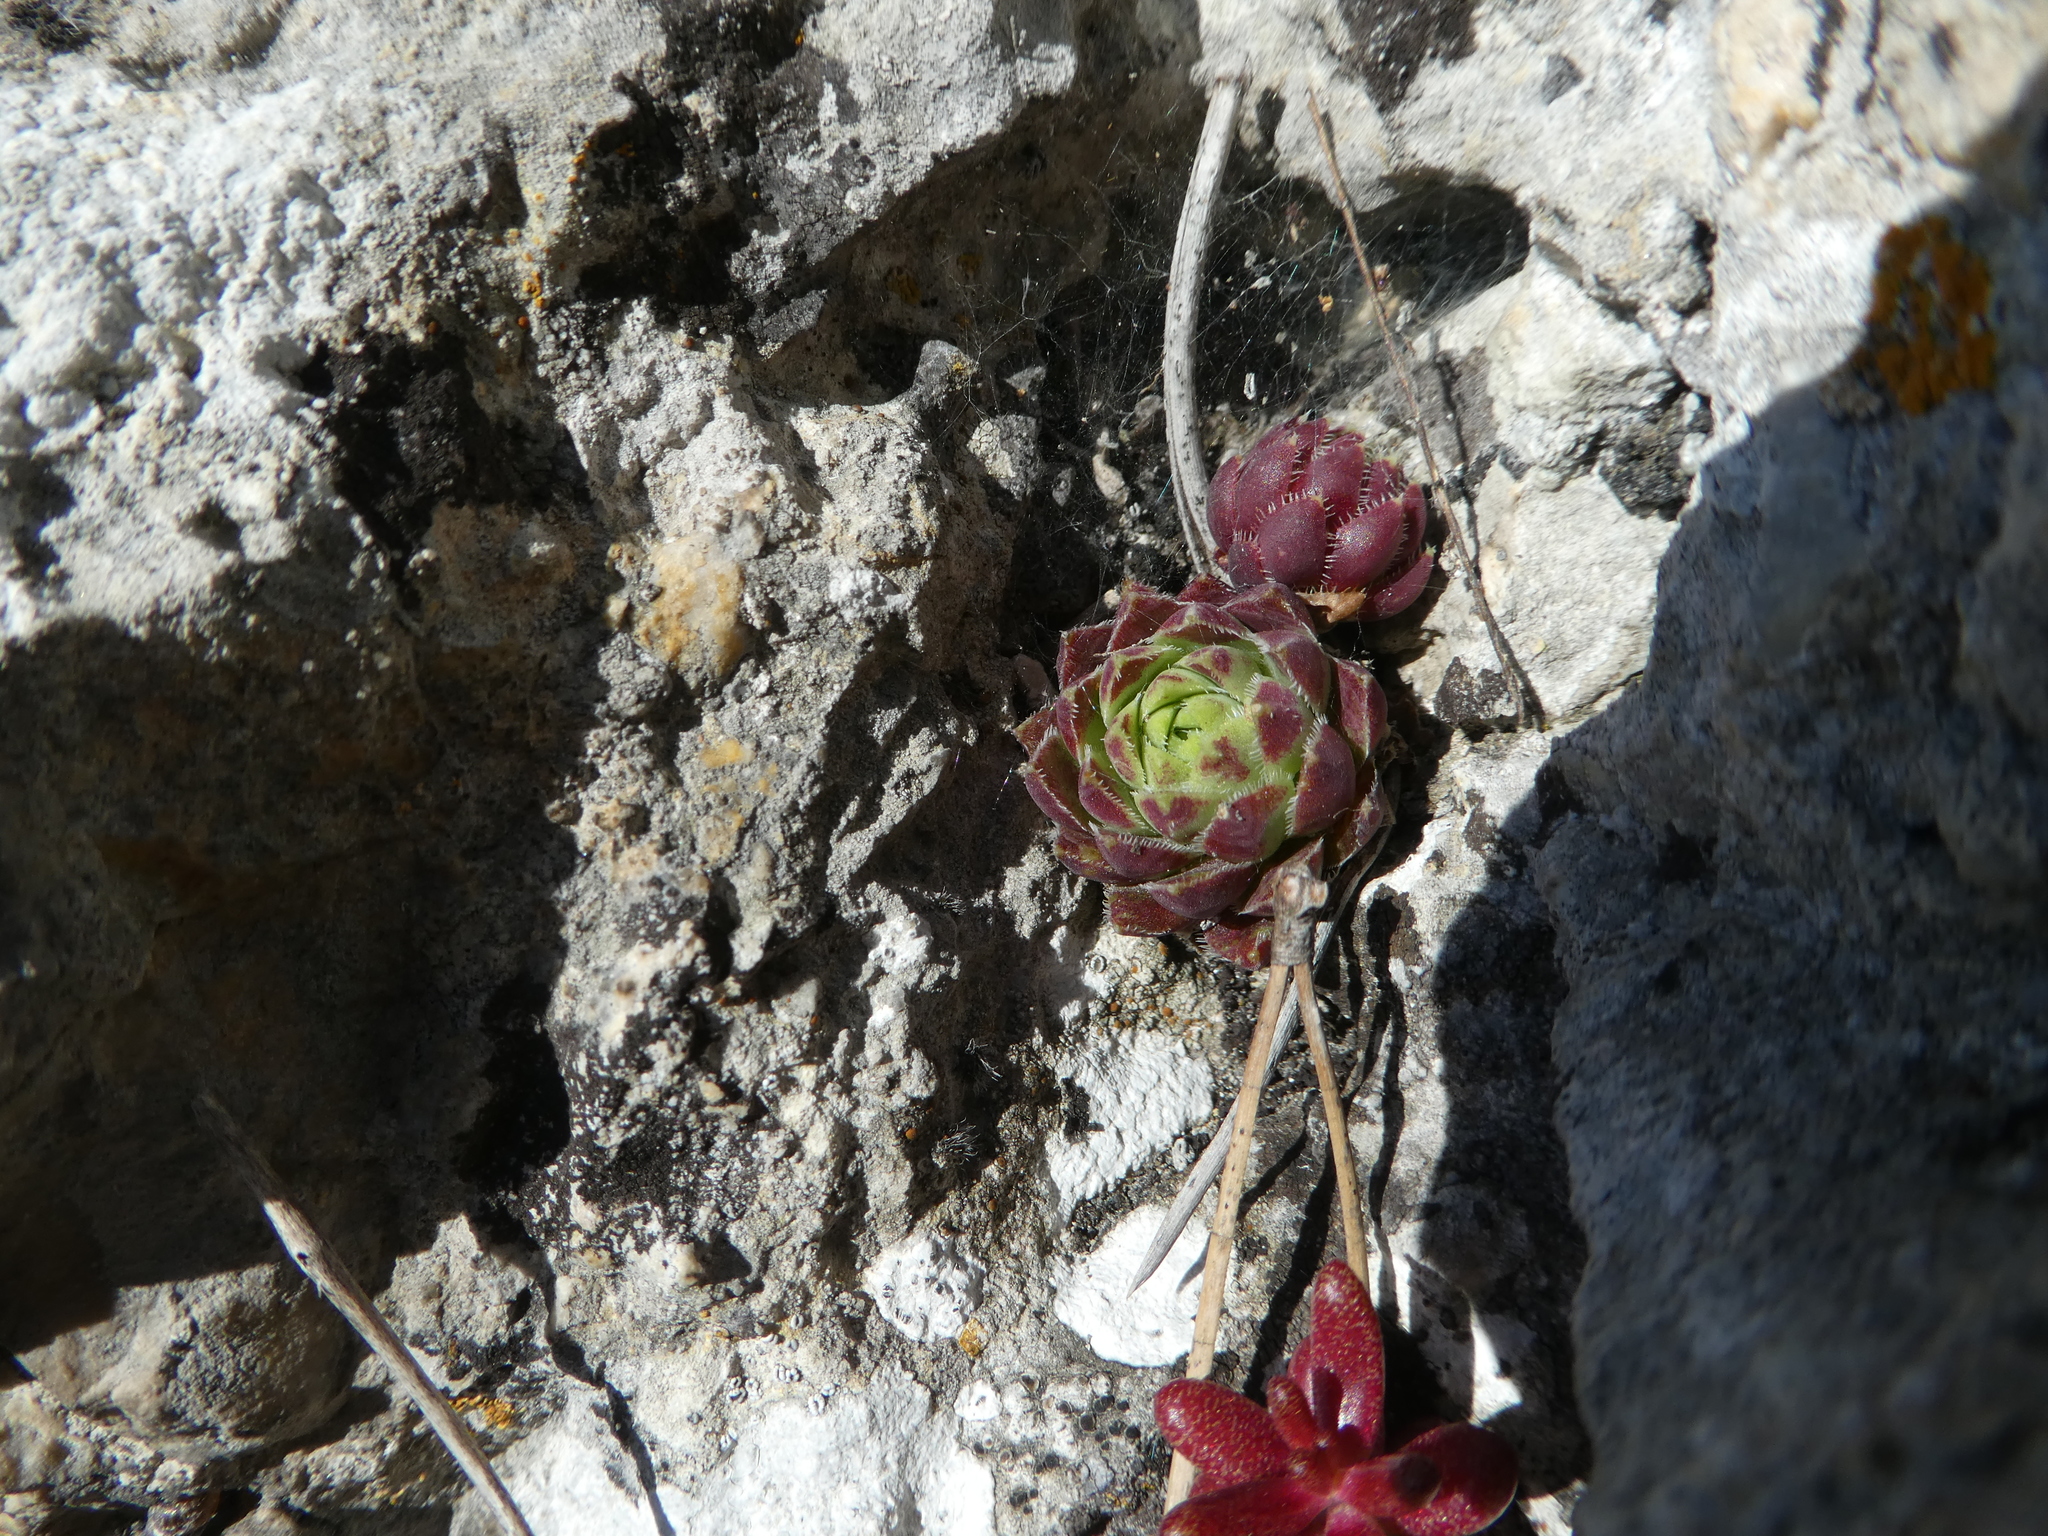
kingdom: Plantae
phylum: Tracheophyta
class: Magnoliopsida
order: Saxifragales
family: Crassulaceae
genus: Sempervivum
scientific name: Sempervivum globiferum
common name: Rolling hen-and-chicks
